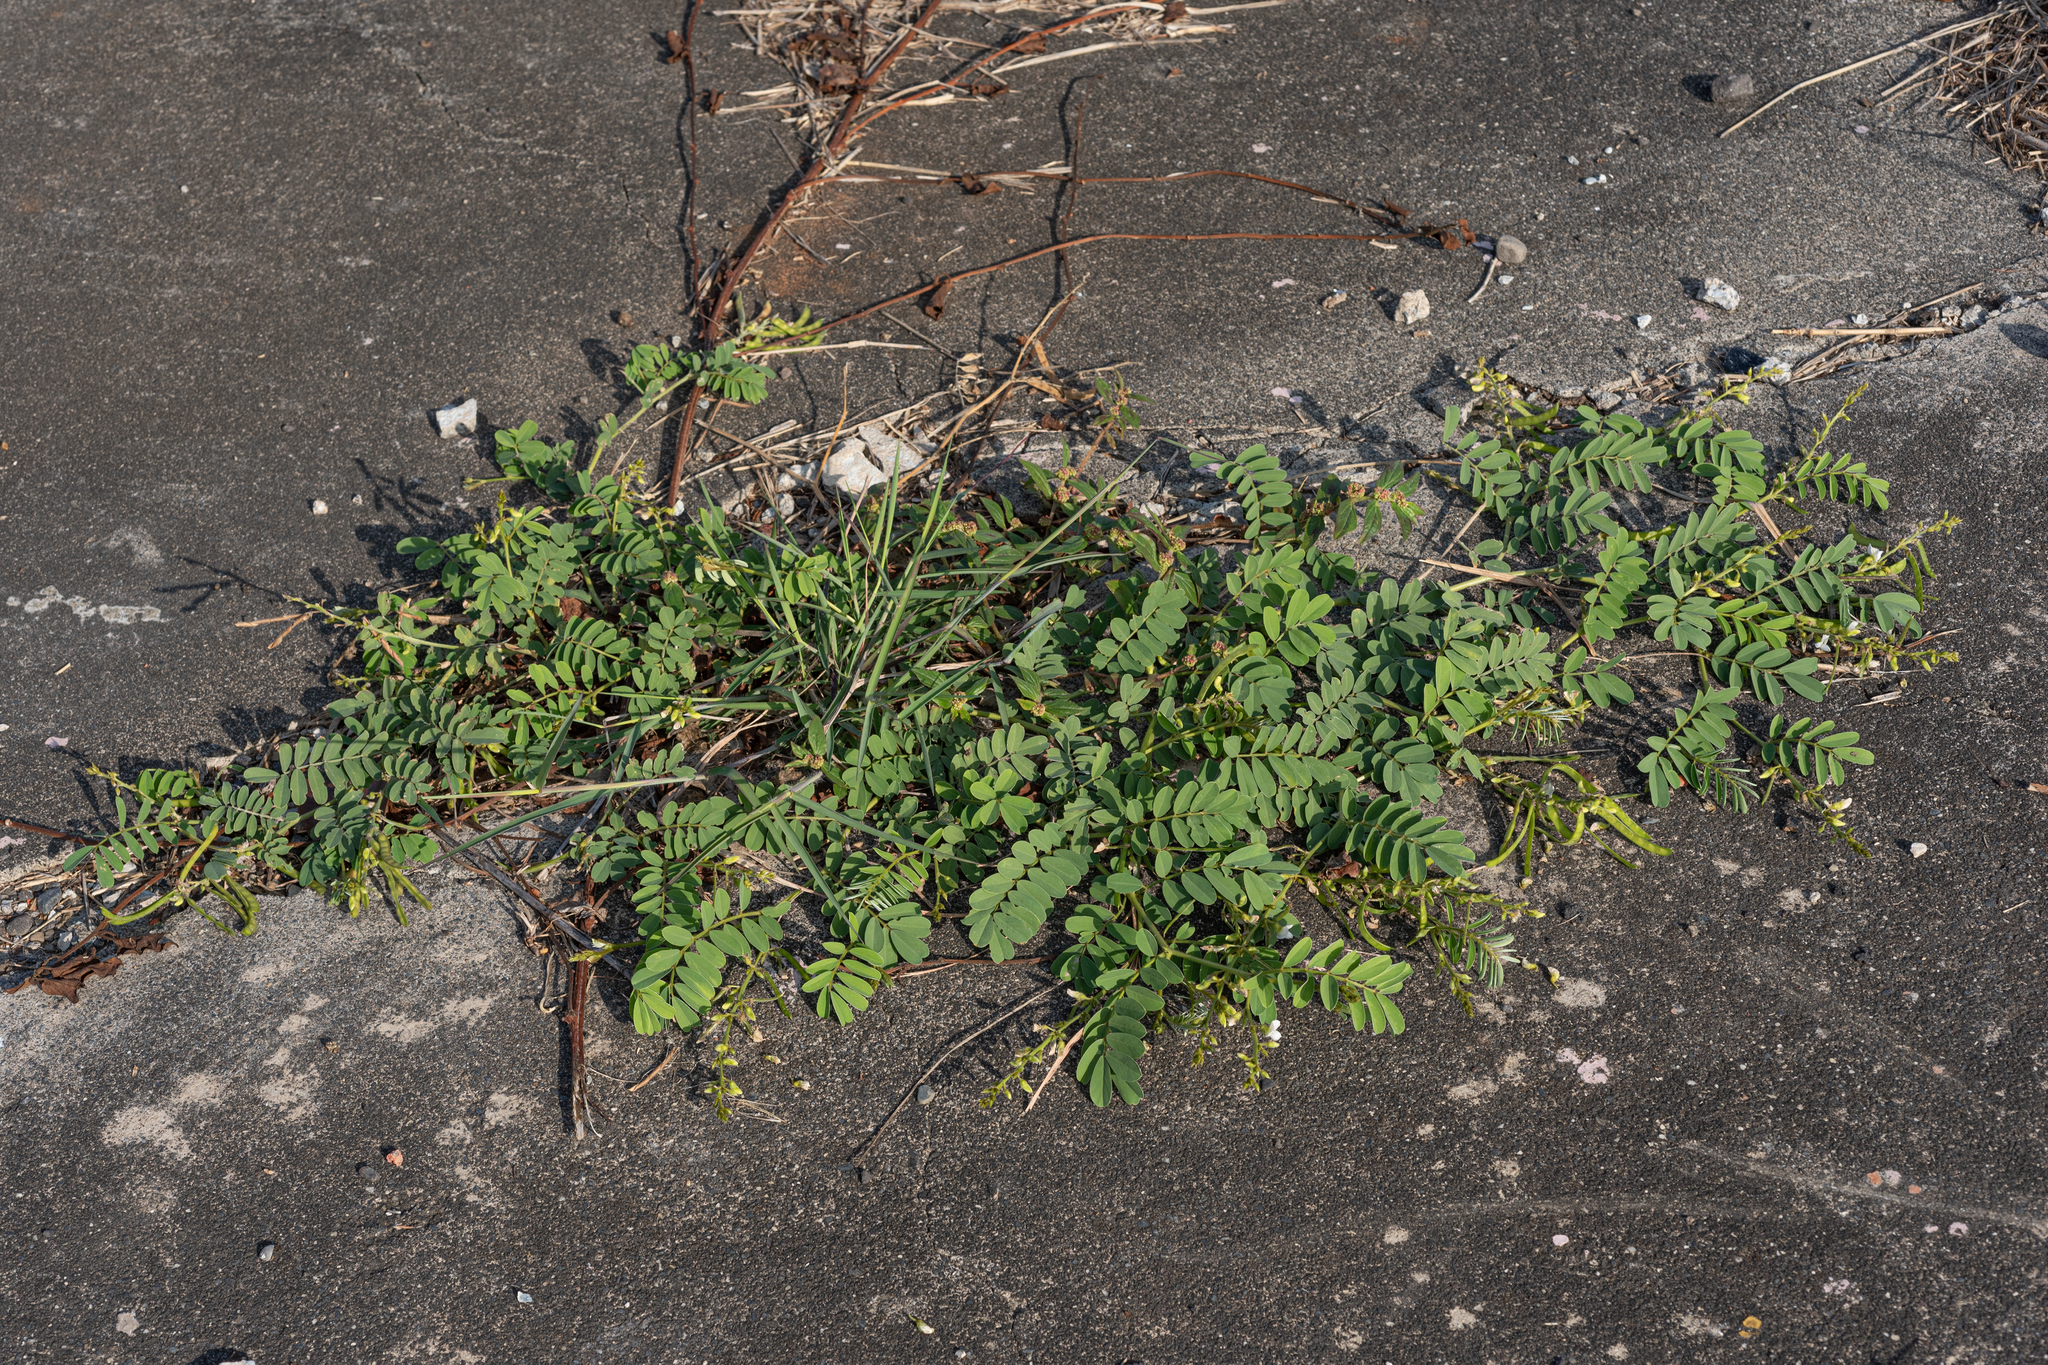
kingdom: Plantae
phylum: Tracheophyta
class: Magnoliopsida
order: Fabales
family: Fabaceae
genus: Tephrosia
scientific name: Tephrosia purpurea
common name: Fishpoison
